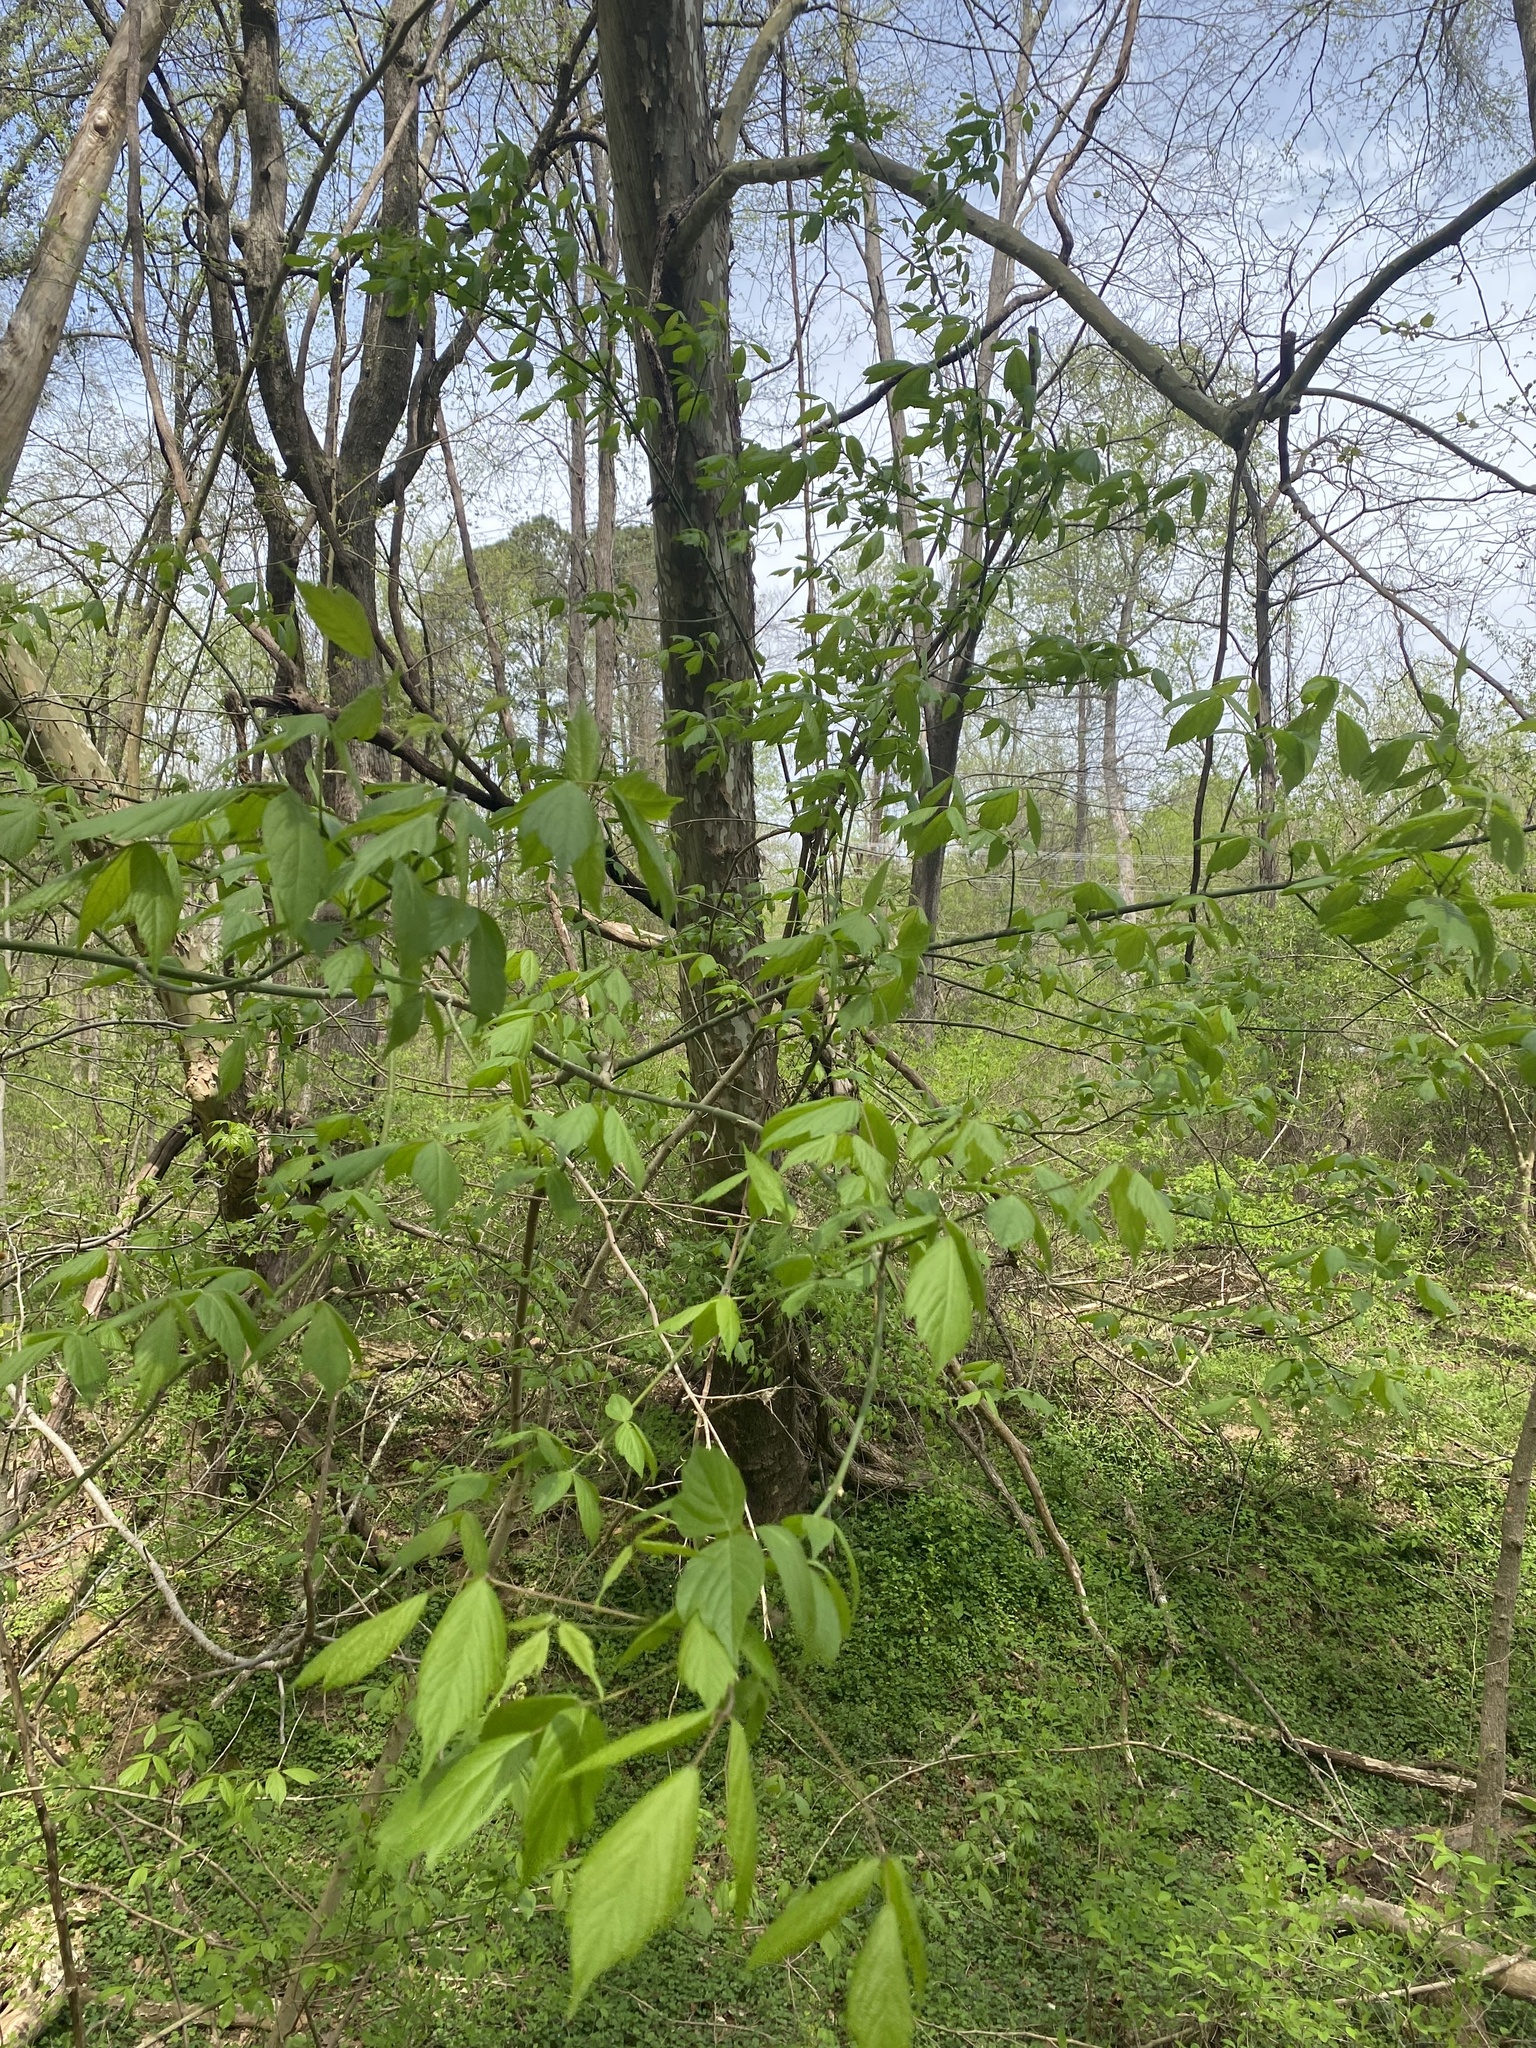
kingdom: Plantae
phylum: Tracheophyta
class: Magnoliopsida
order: Sapindales
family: Sapindaceae
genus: Acer
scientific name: Acer negundo
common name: Ashleaf maple
